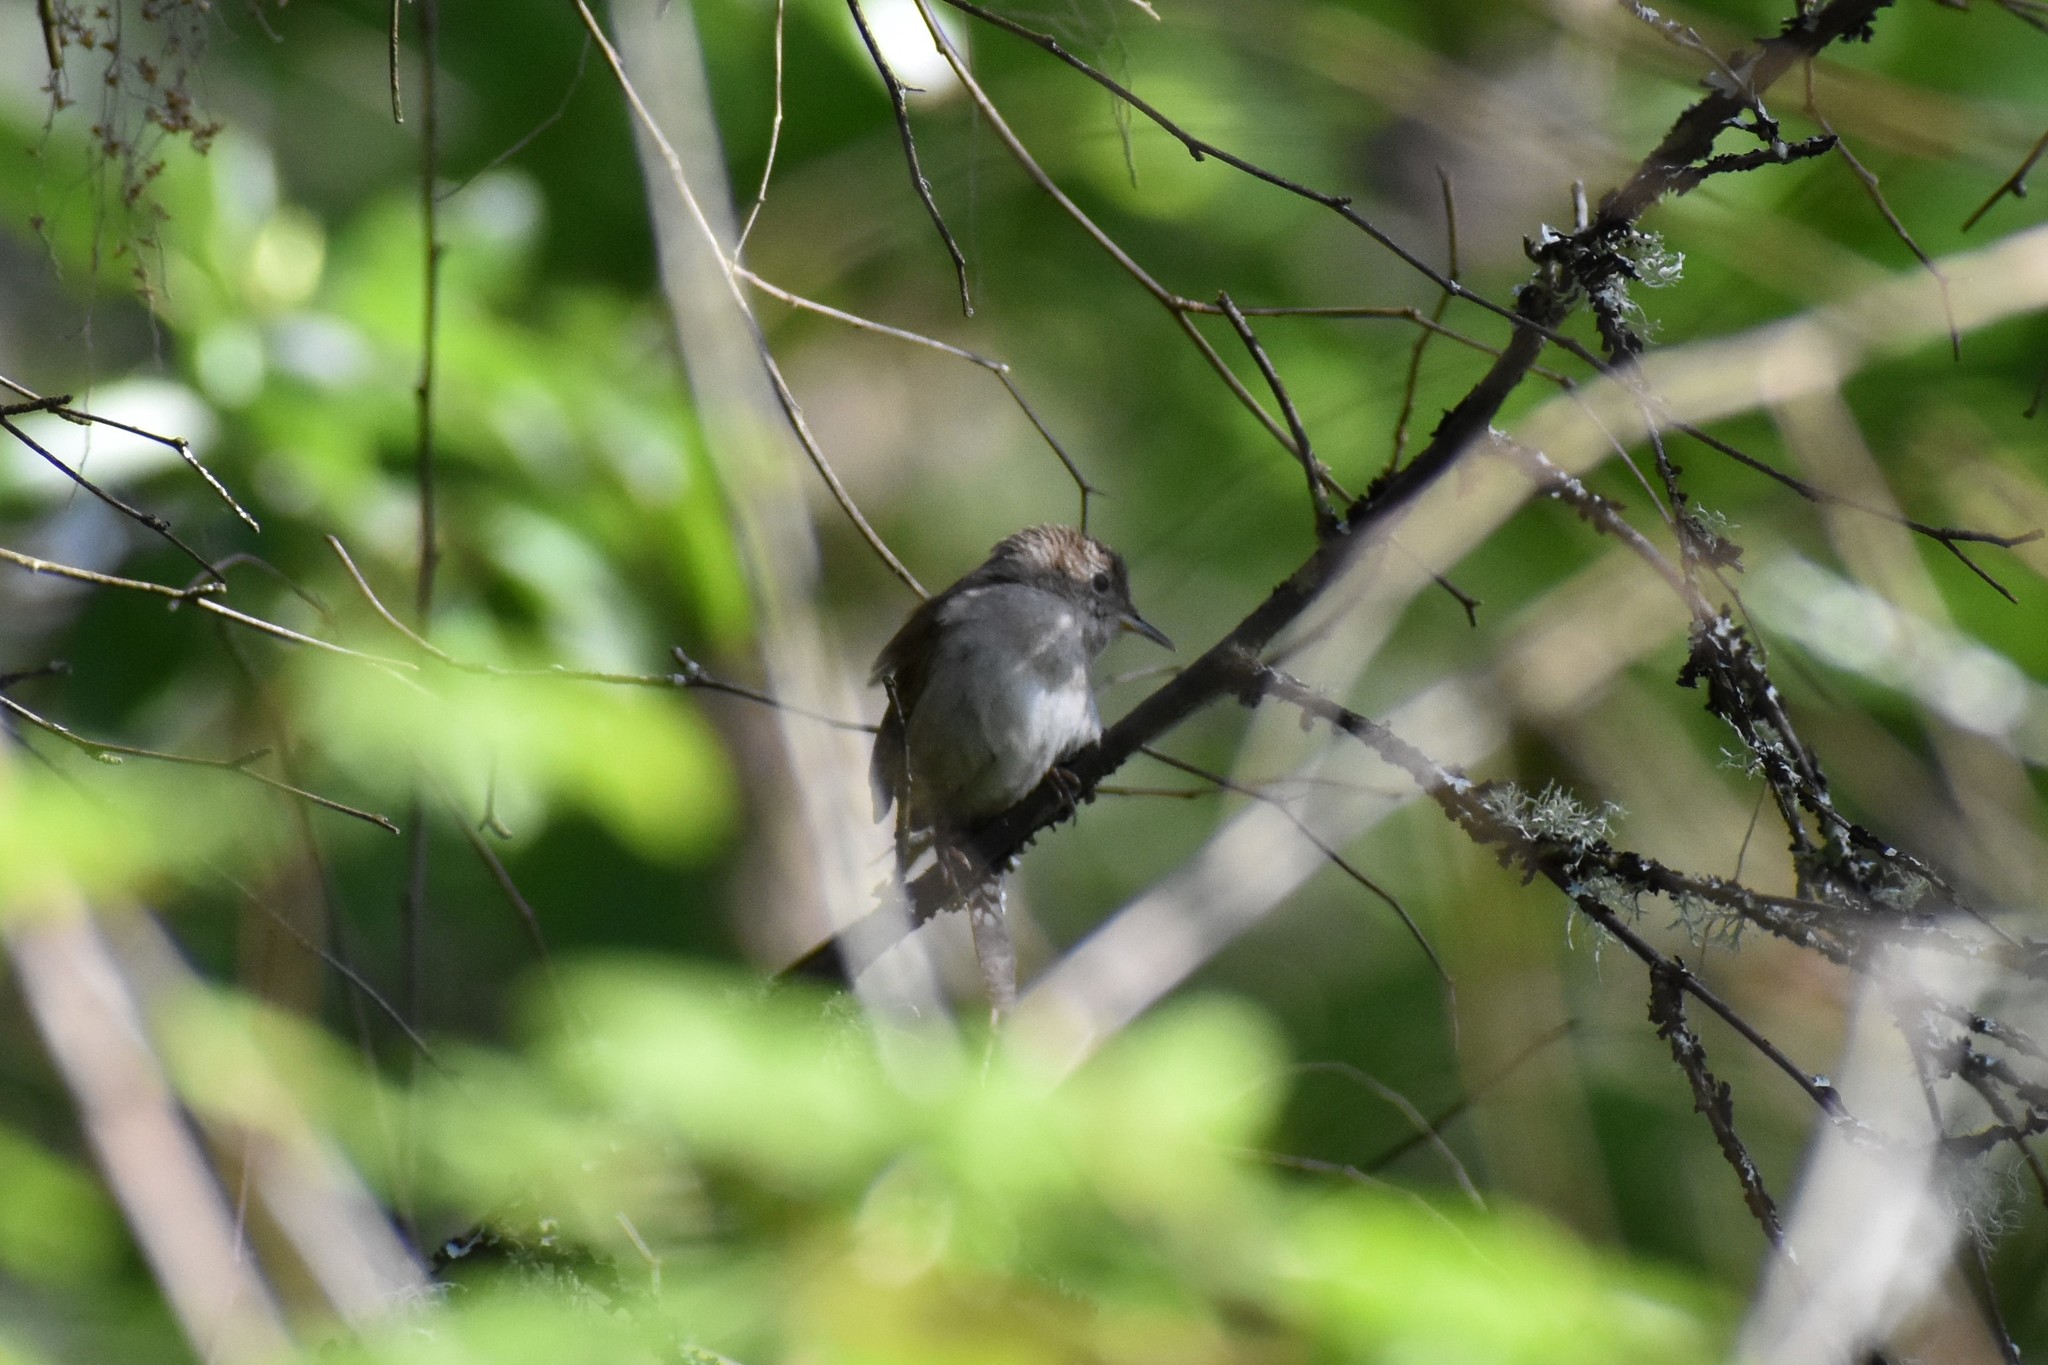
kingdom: Animalia
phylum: Chordata
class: Aves
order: Passeriformes
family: Troglodytidae
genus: Troglodytes
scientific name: Troglodytes aedon
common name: House wren
